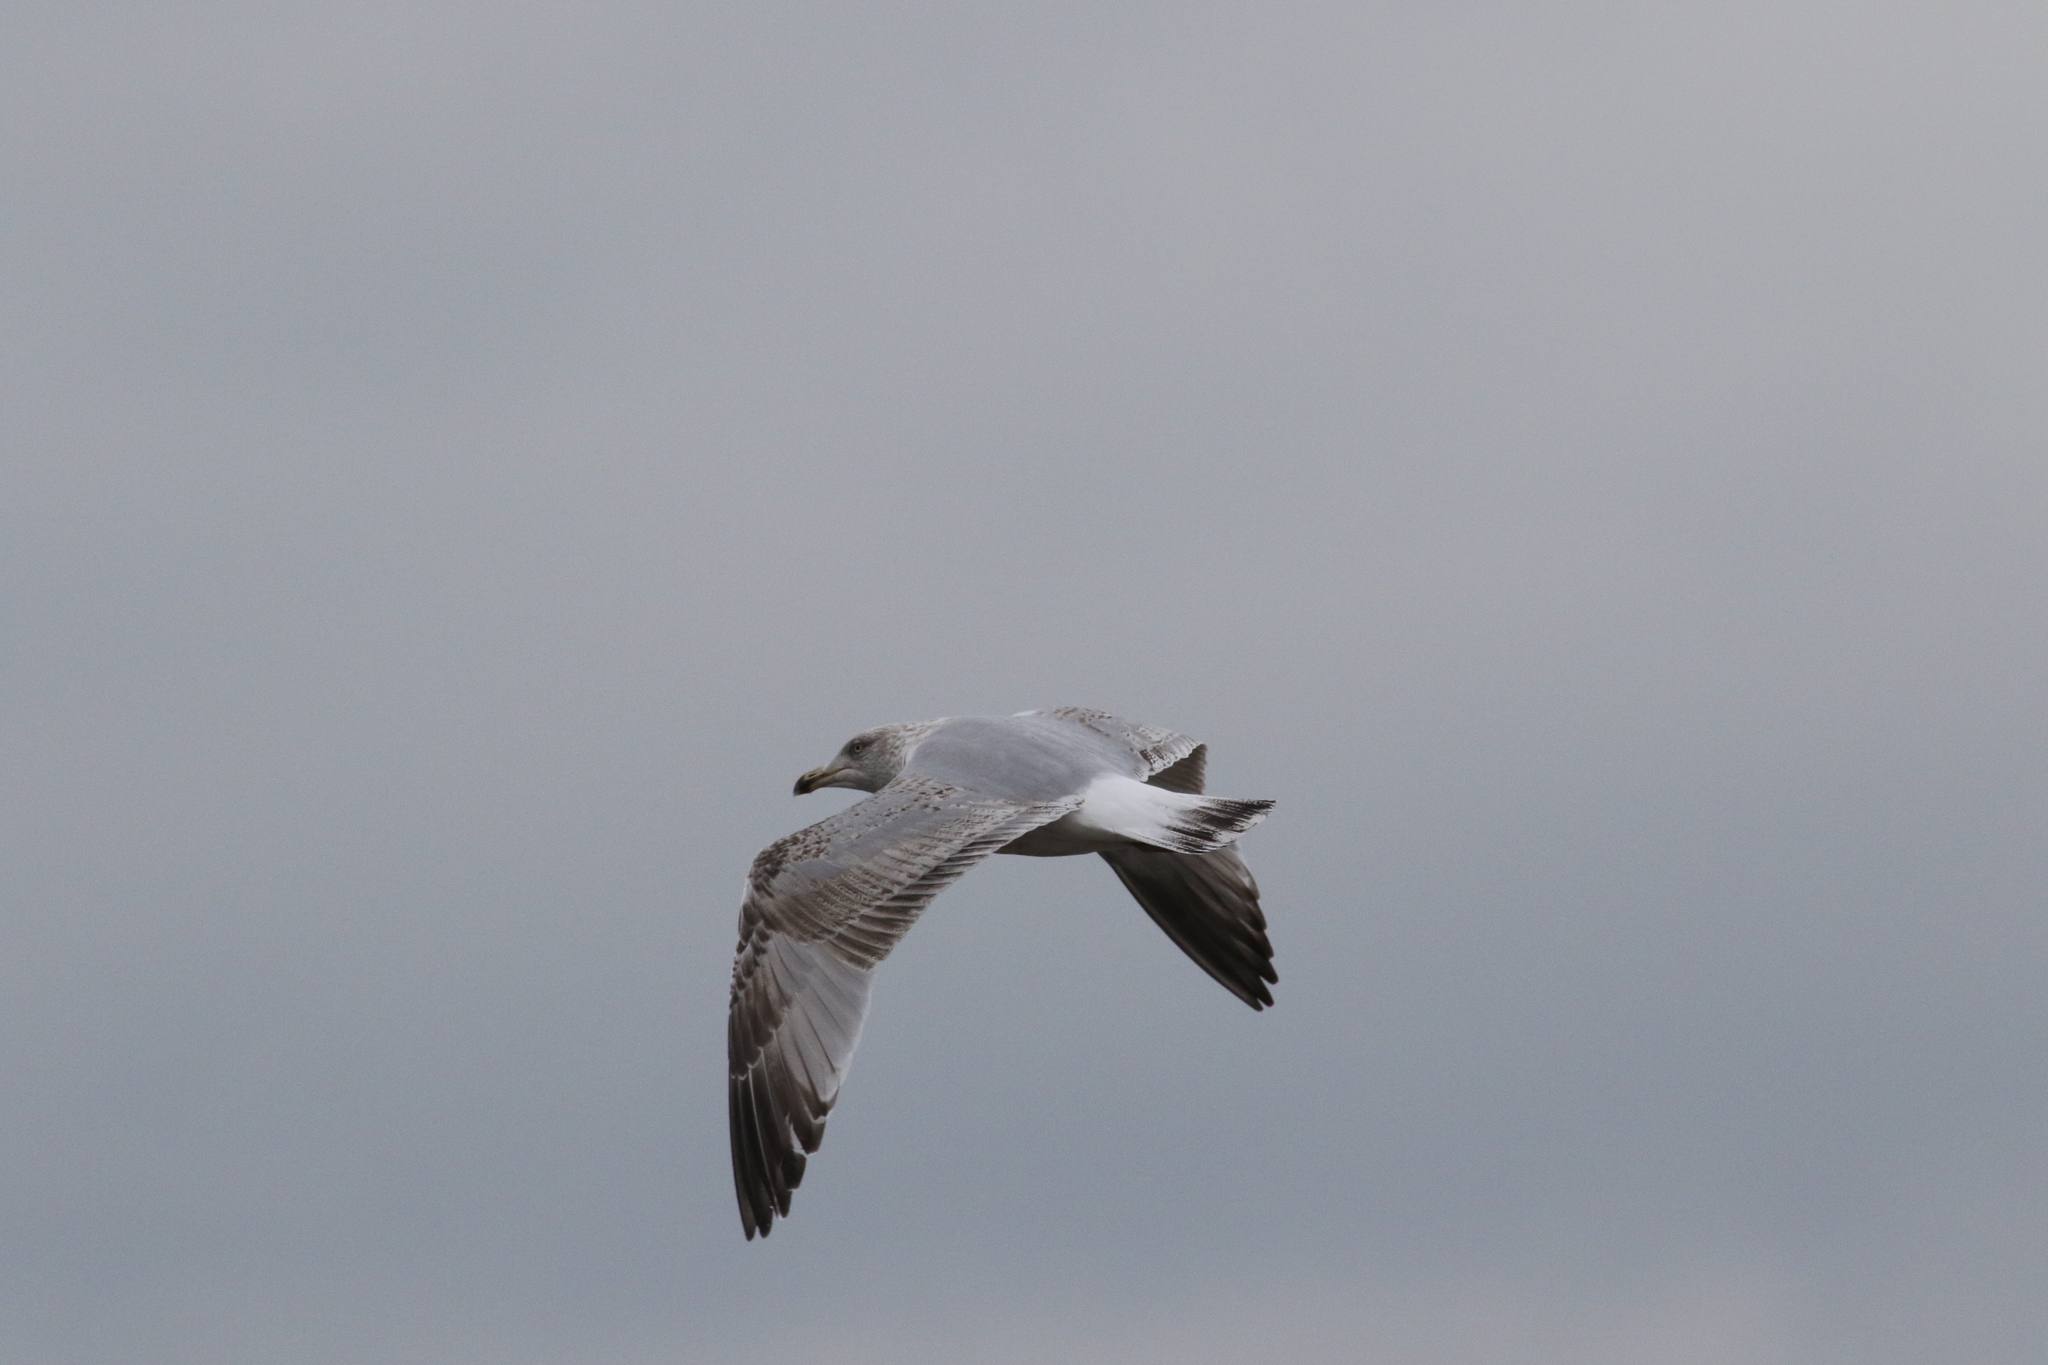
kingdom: Animalia
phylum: Chordata
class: Aves
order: Charadriiformes
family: Laridae
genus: Larus
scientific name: Larus argentatus
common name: Herring gull
